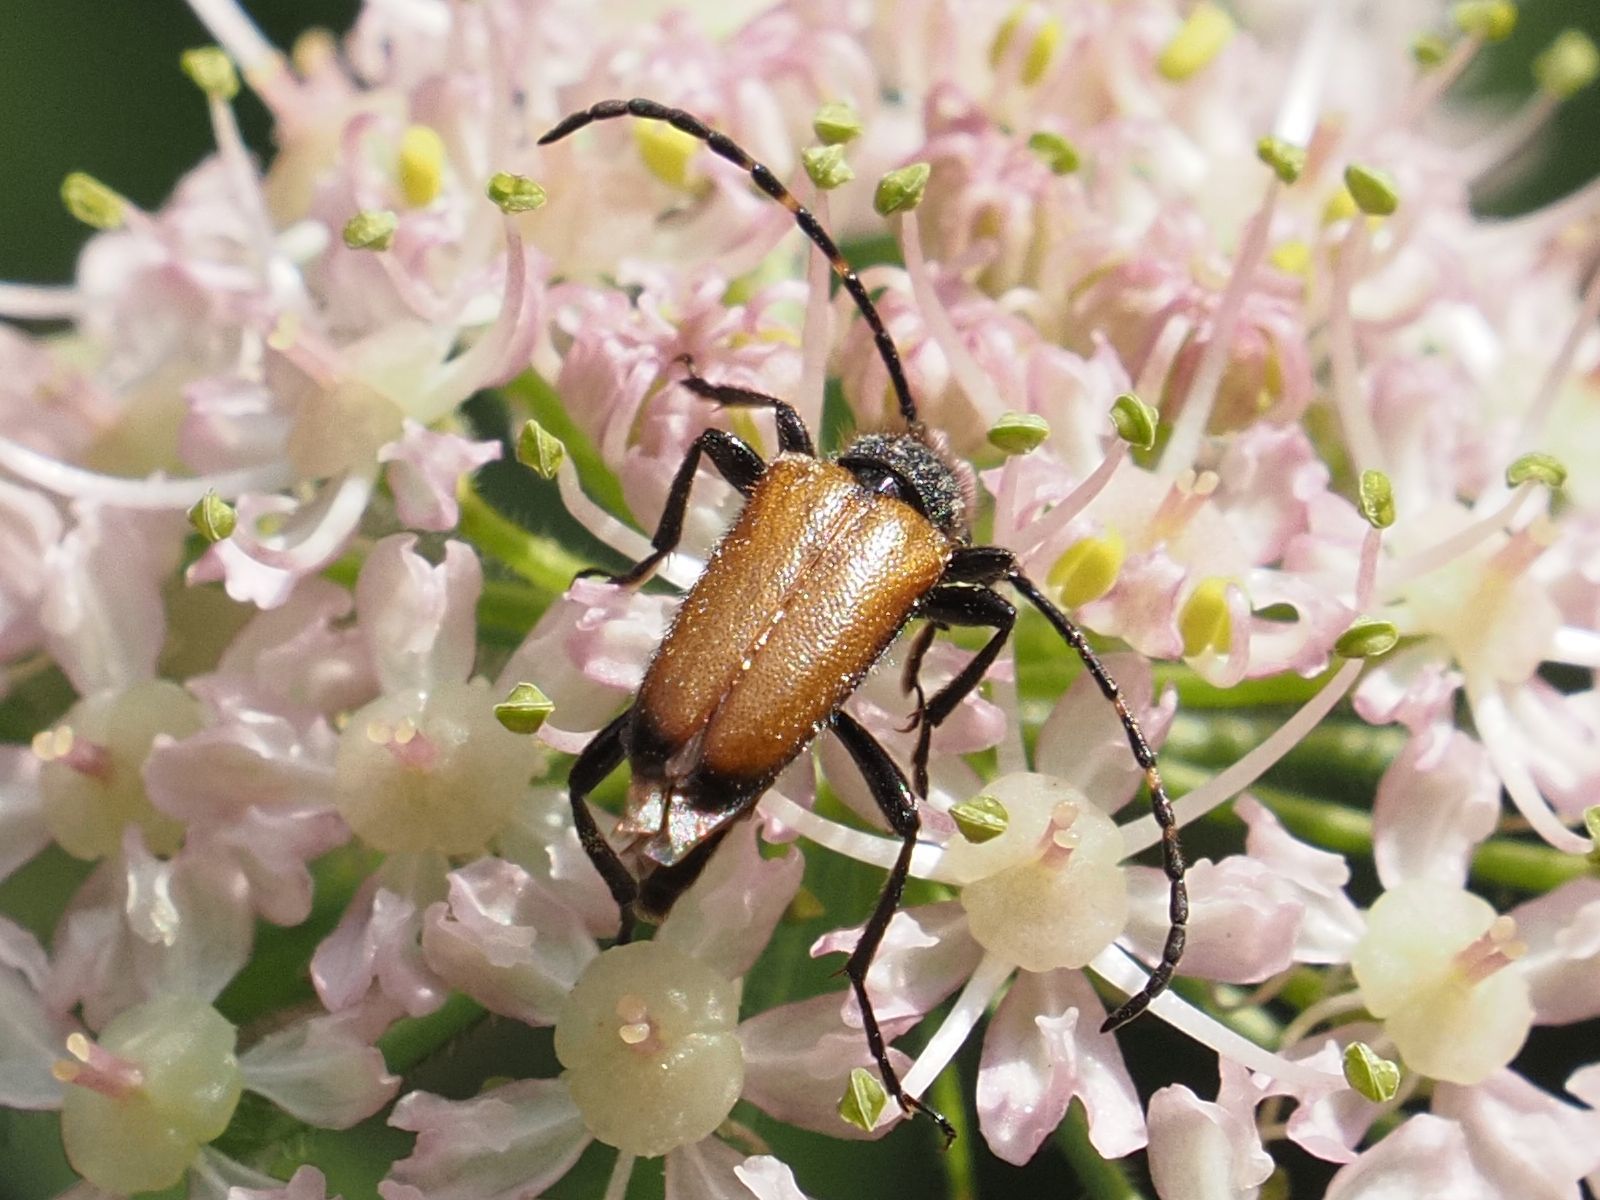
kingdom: Animalia
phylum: Arthropoda
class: Insecta
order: Coleoptera
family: Cerambycidae
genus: Paracorymbia
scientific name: Paracorymbia maculicornis
